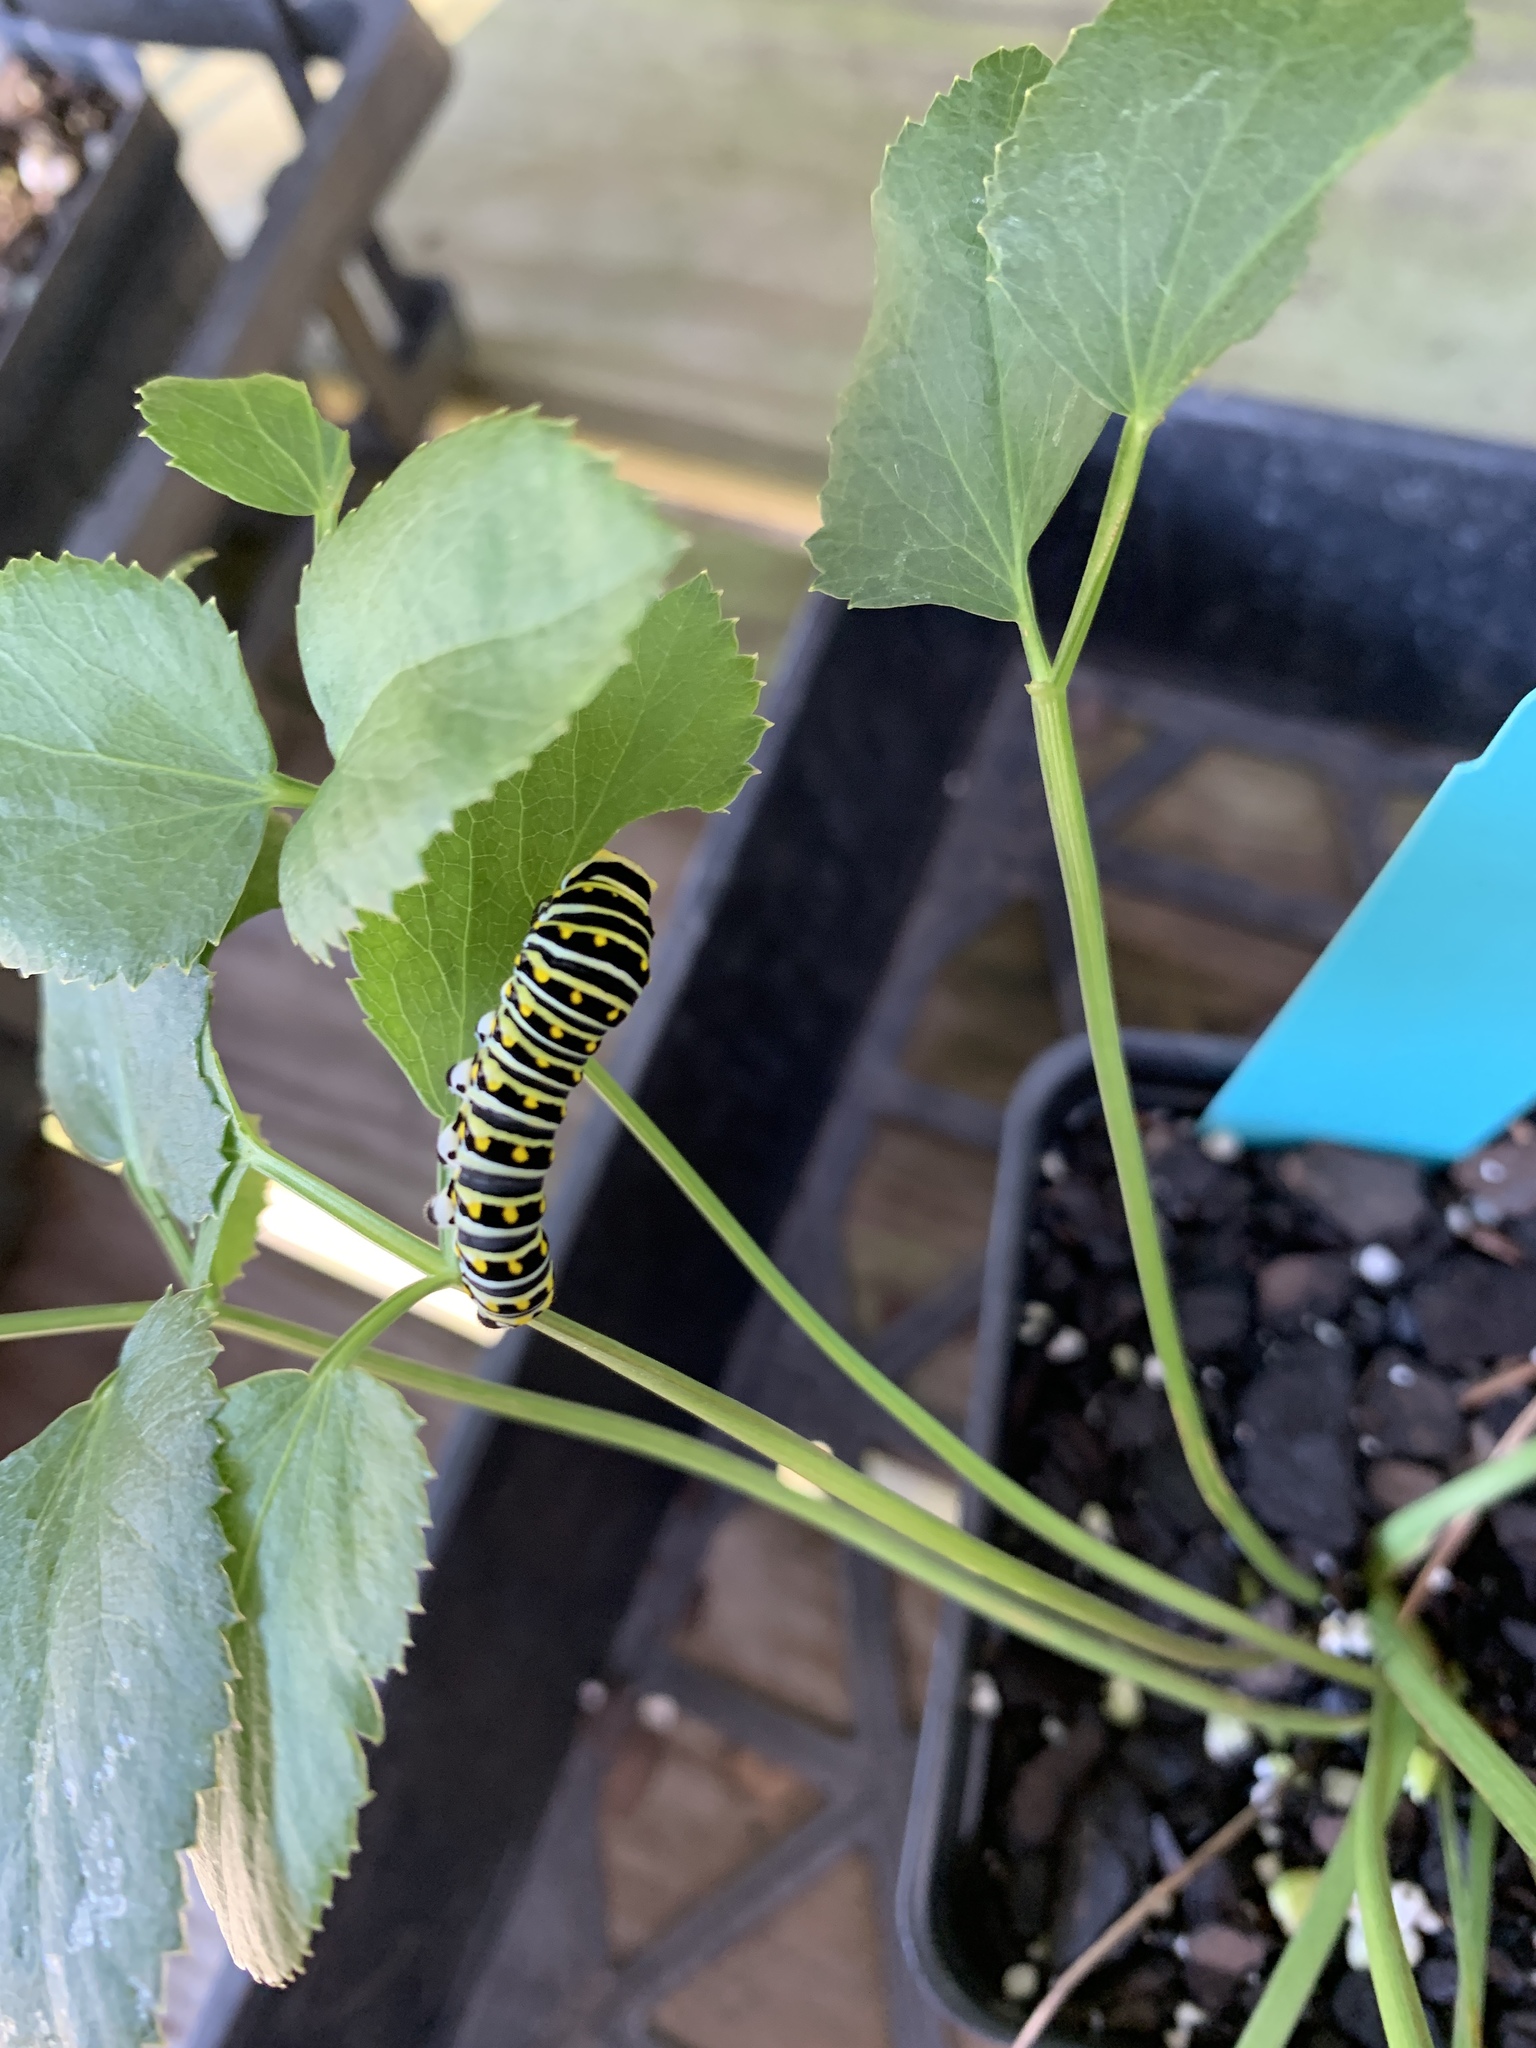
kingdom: Animalia
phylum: Arthropoda
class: Insecta
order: Lepidoptera
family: Papilionidae
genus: Papilio
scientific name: Papilio polyxenes
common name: Black swallowtail
